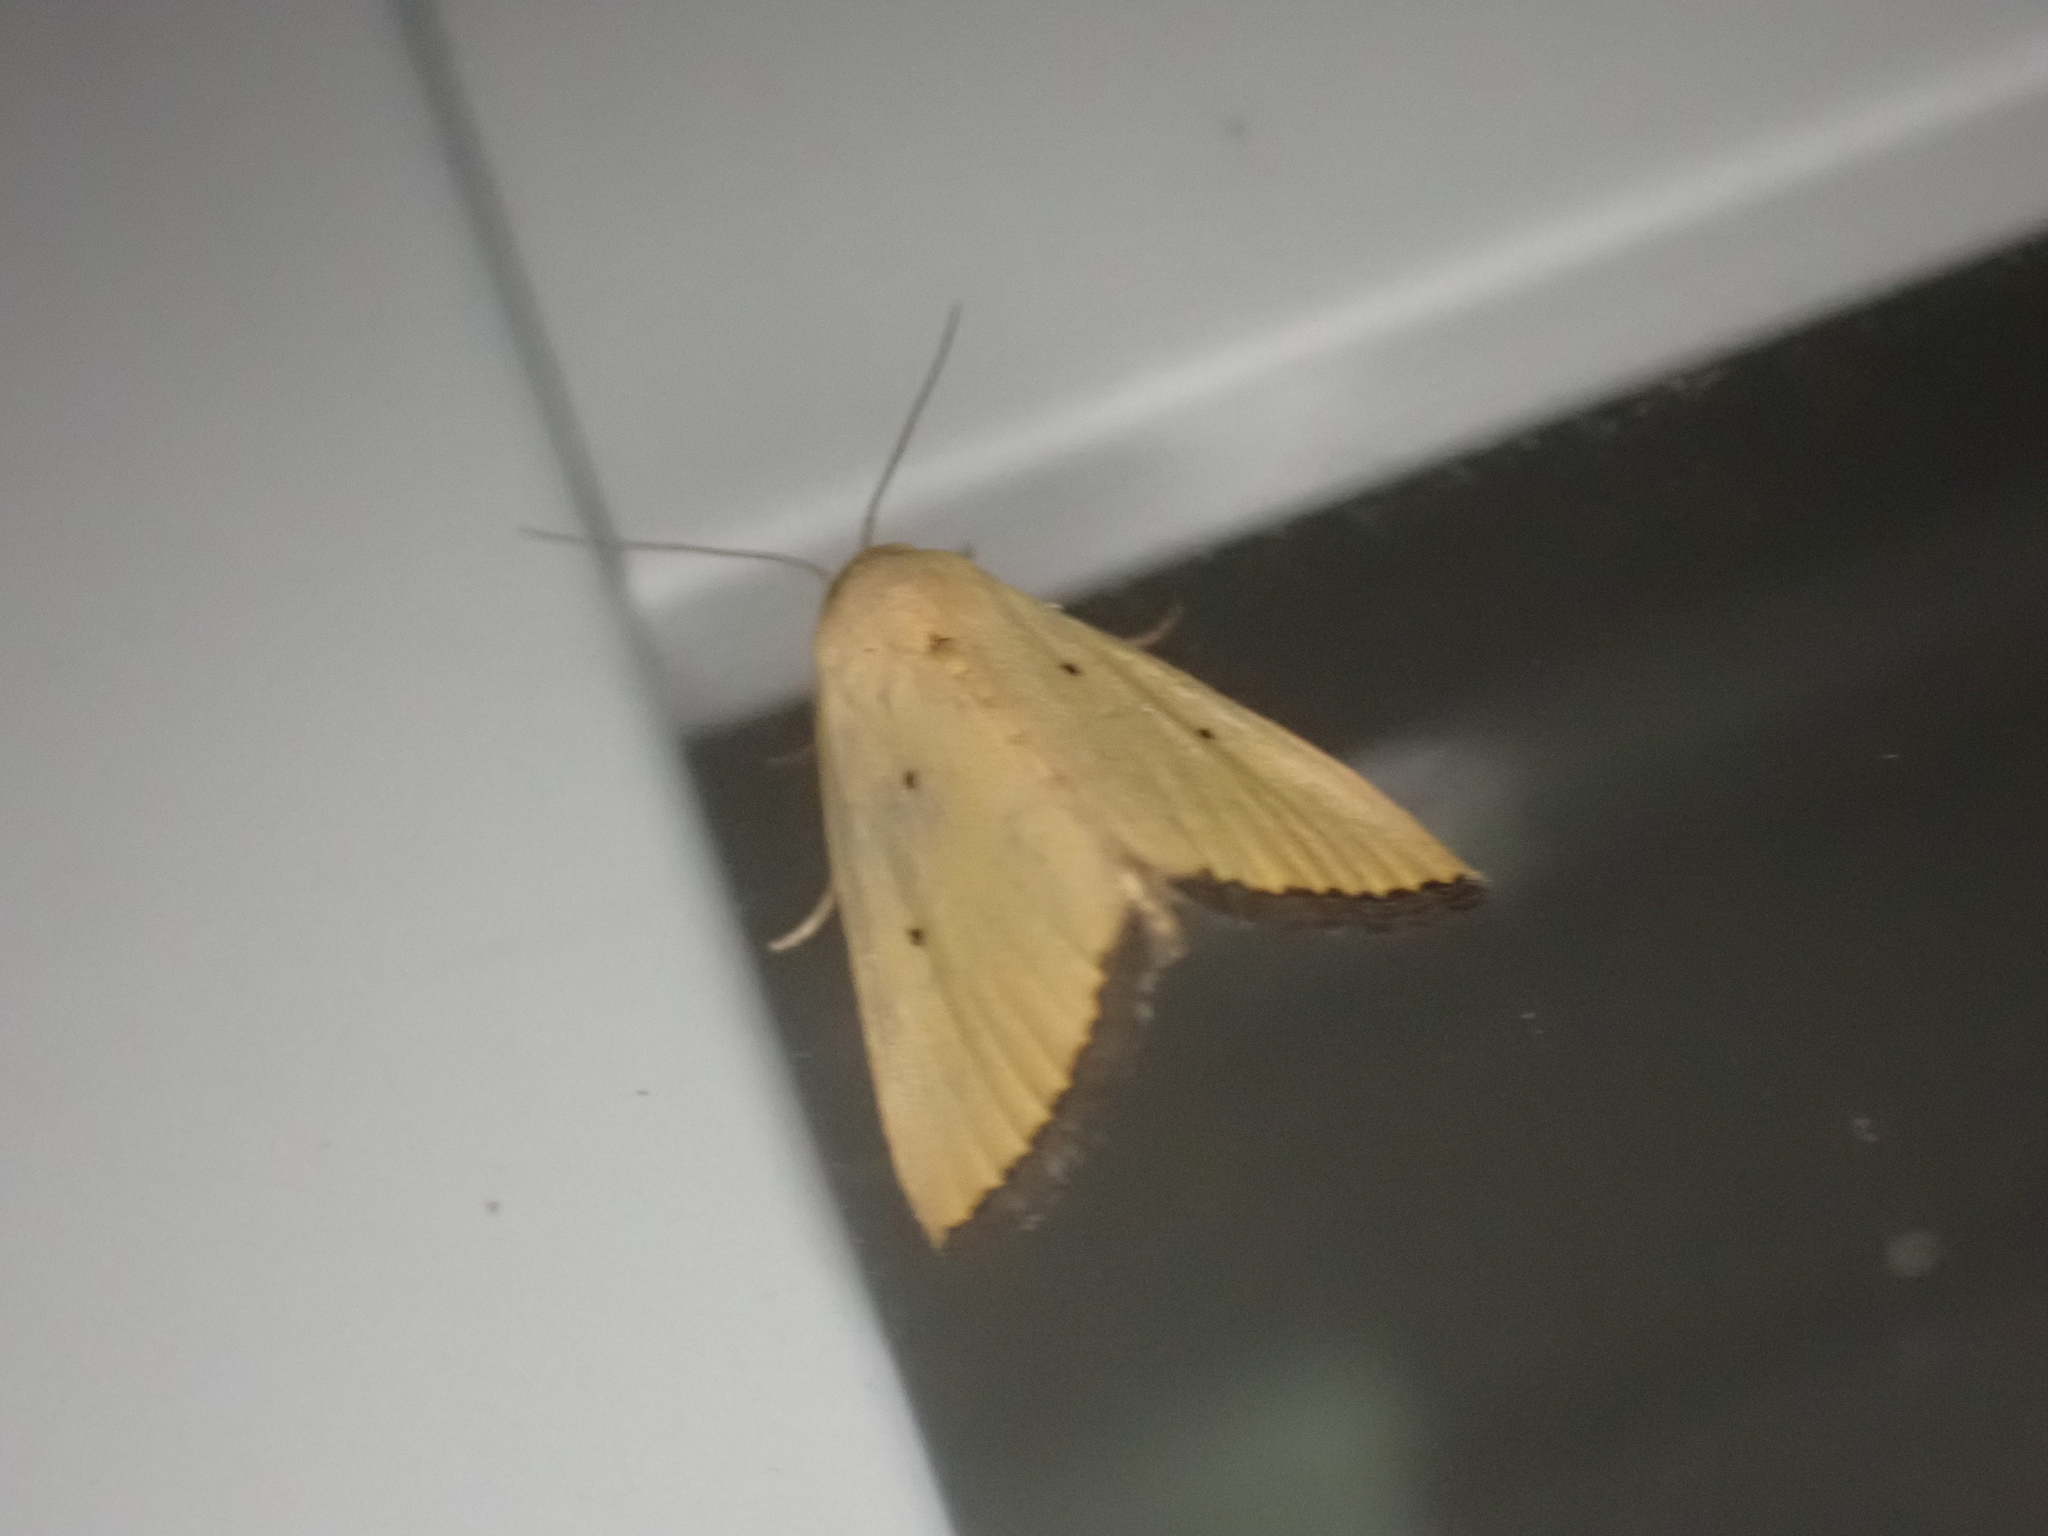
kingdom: Animalia
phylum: Arthropoda
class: Insecta
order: Lepidoptera
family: Noctuidae
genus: Marimatha
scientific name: Marimatha nigrofimbria
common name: Black-bordered lemon moth
